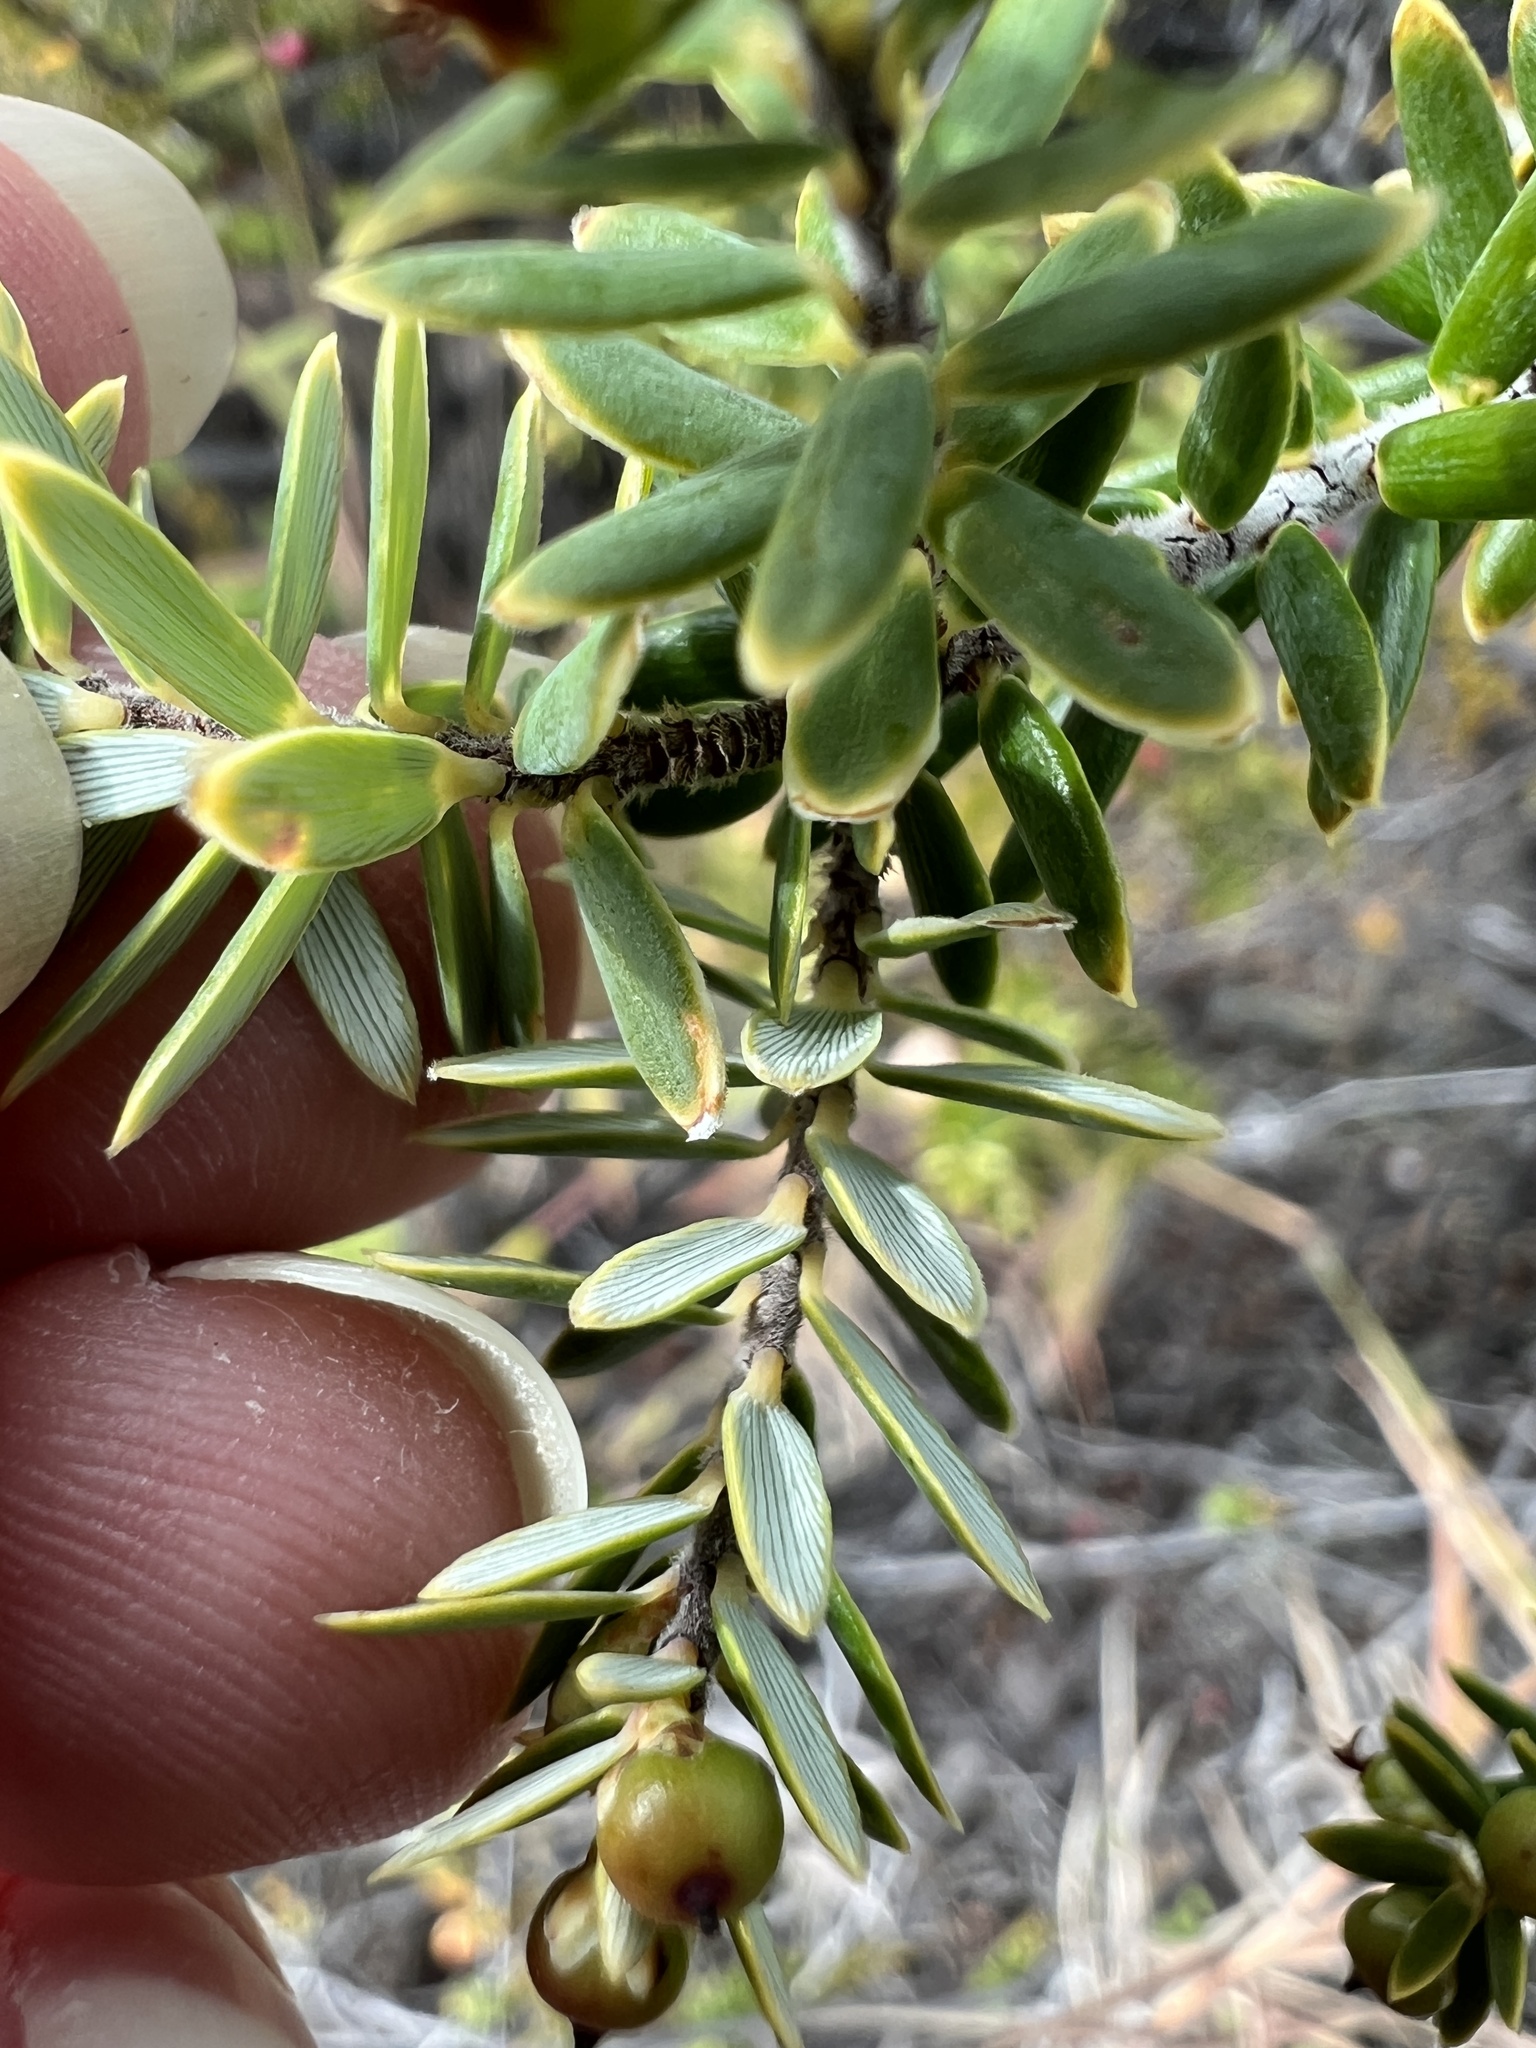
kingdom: Plantae
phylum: Tracheophyta
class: Magnoliopsida
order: Ericales
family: Ericaceae
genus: Leptecophylla
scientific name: Leptecophylla tameiameiae
